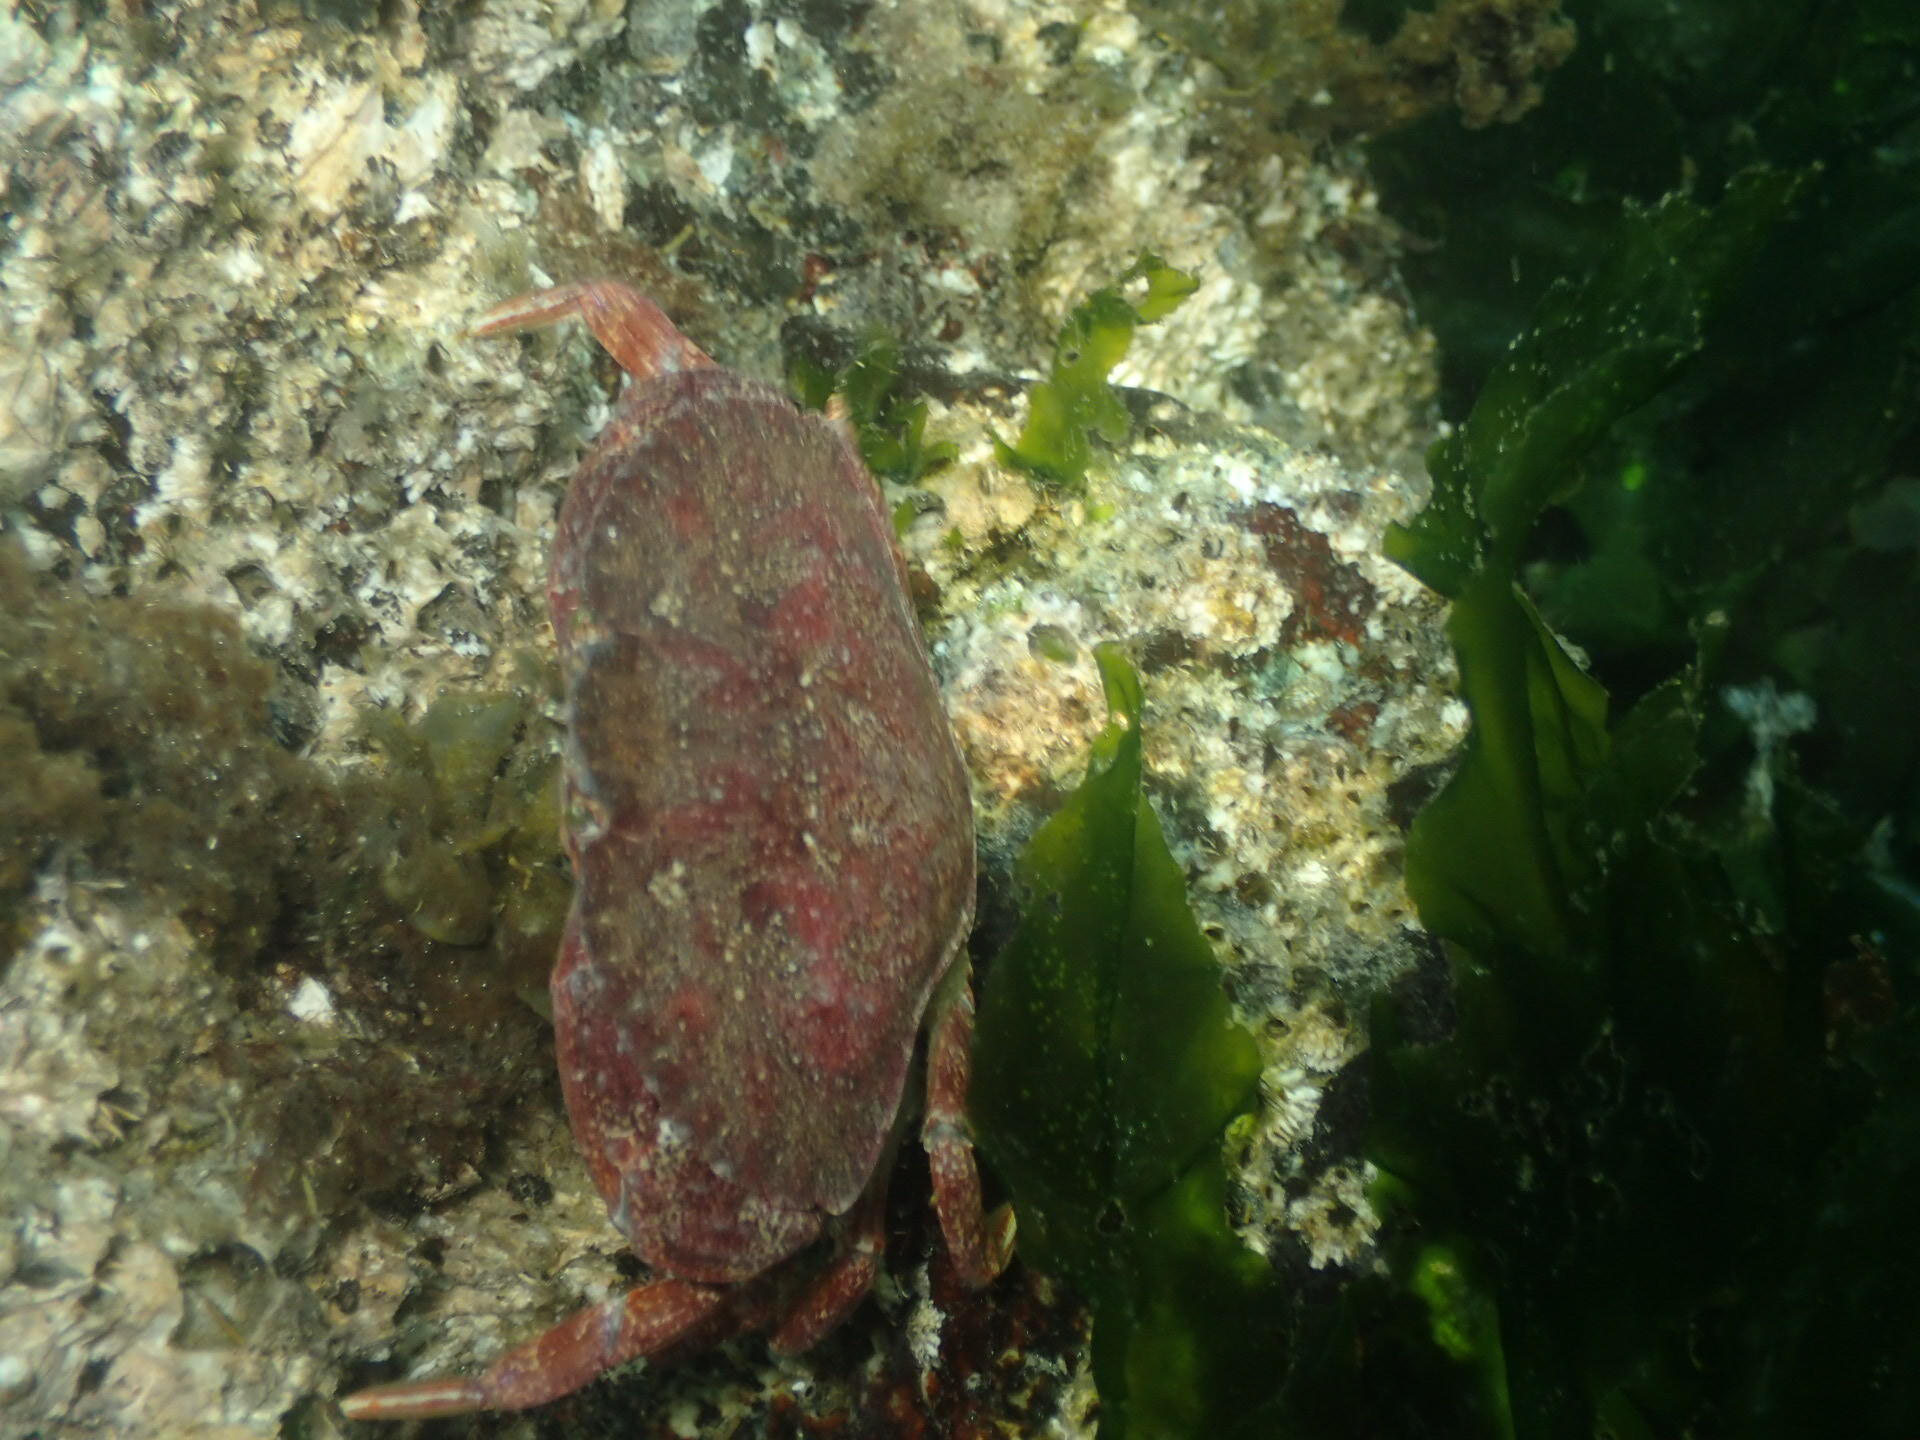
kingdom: Animalia
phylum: Arthropoda
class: Malacostraca
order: Decapoda
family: Cancridae
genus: Cancer
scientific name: Cancer productus
